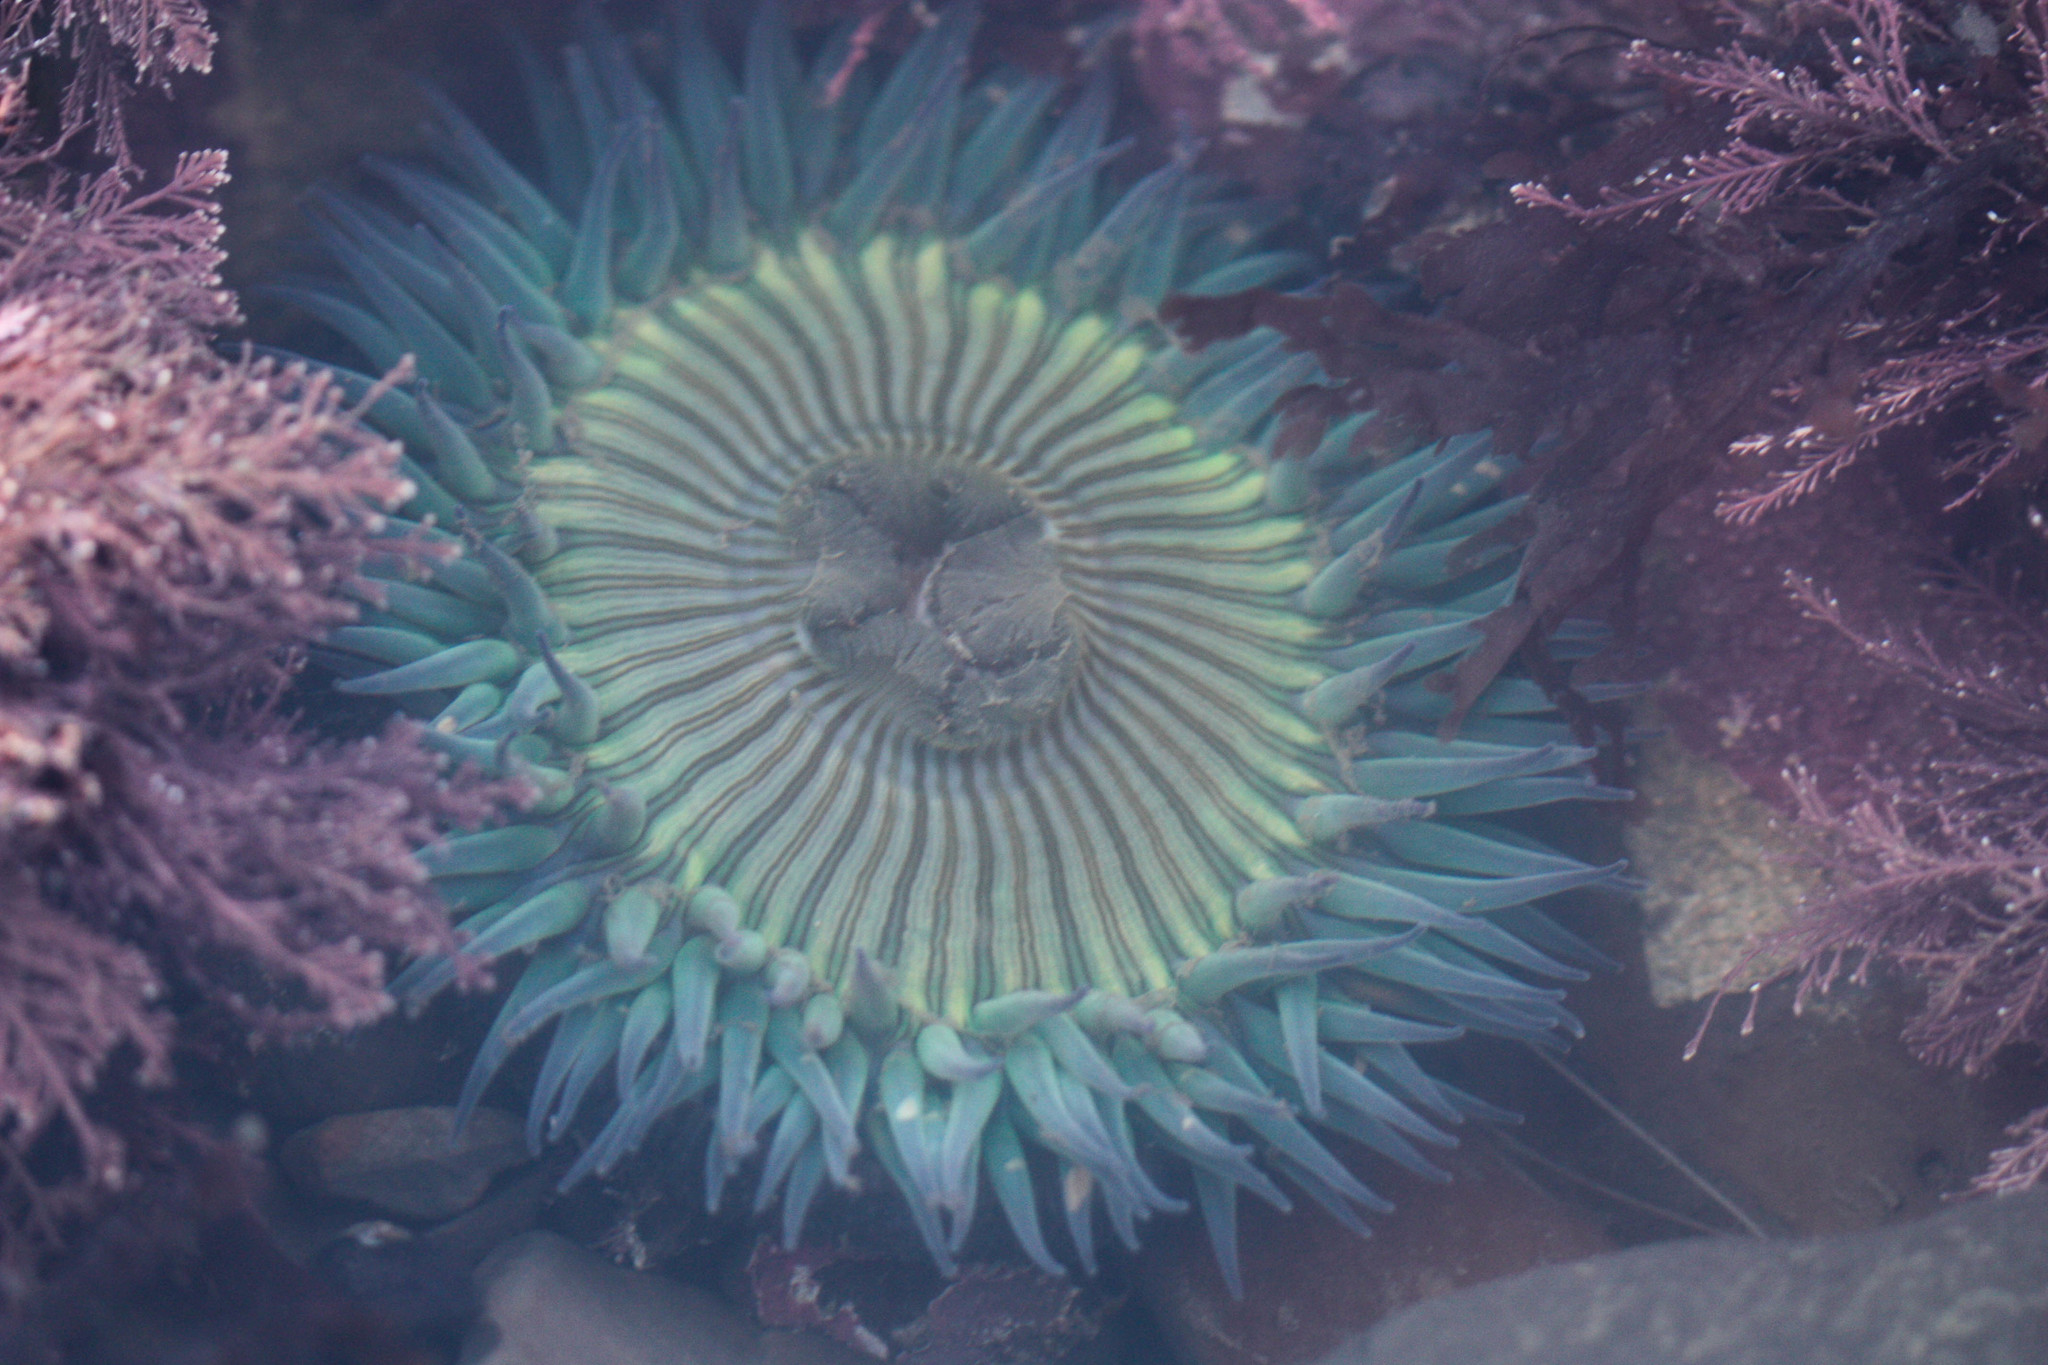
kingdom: Animalia
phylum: Cnidaria
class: Anthozoa
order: Actiniaria
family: Actiniidae
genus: Anthopleura
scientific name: Anthopleura sola
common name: Sun anemone
